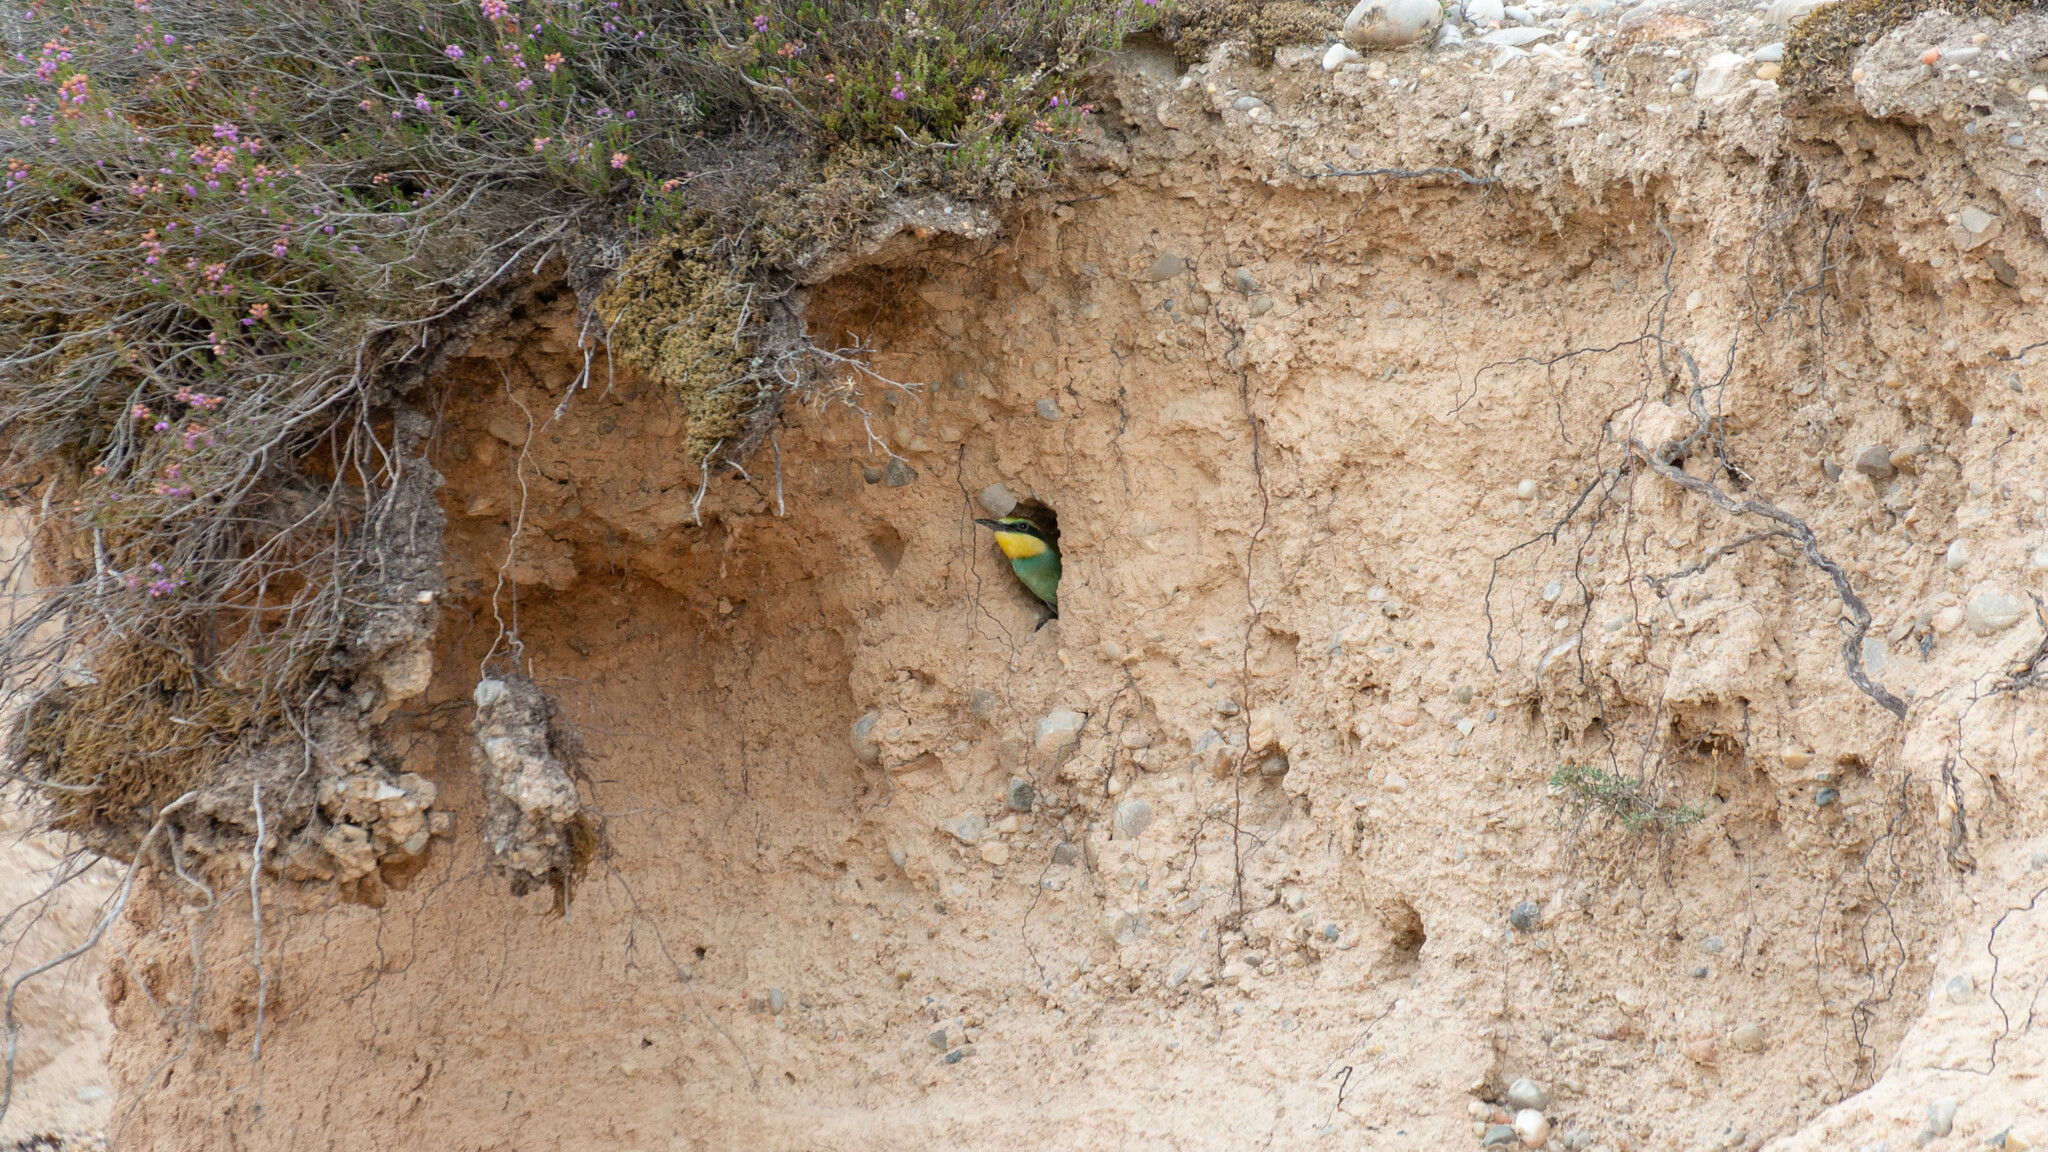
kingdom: Animalia
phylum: Chordata
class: Aves
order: Coraciiformes
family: Meropidae
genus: Merops
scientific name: Merops apiaster
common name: European bee-eater
